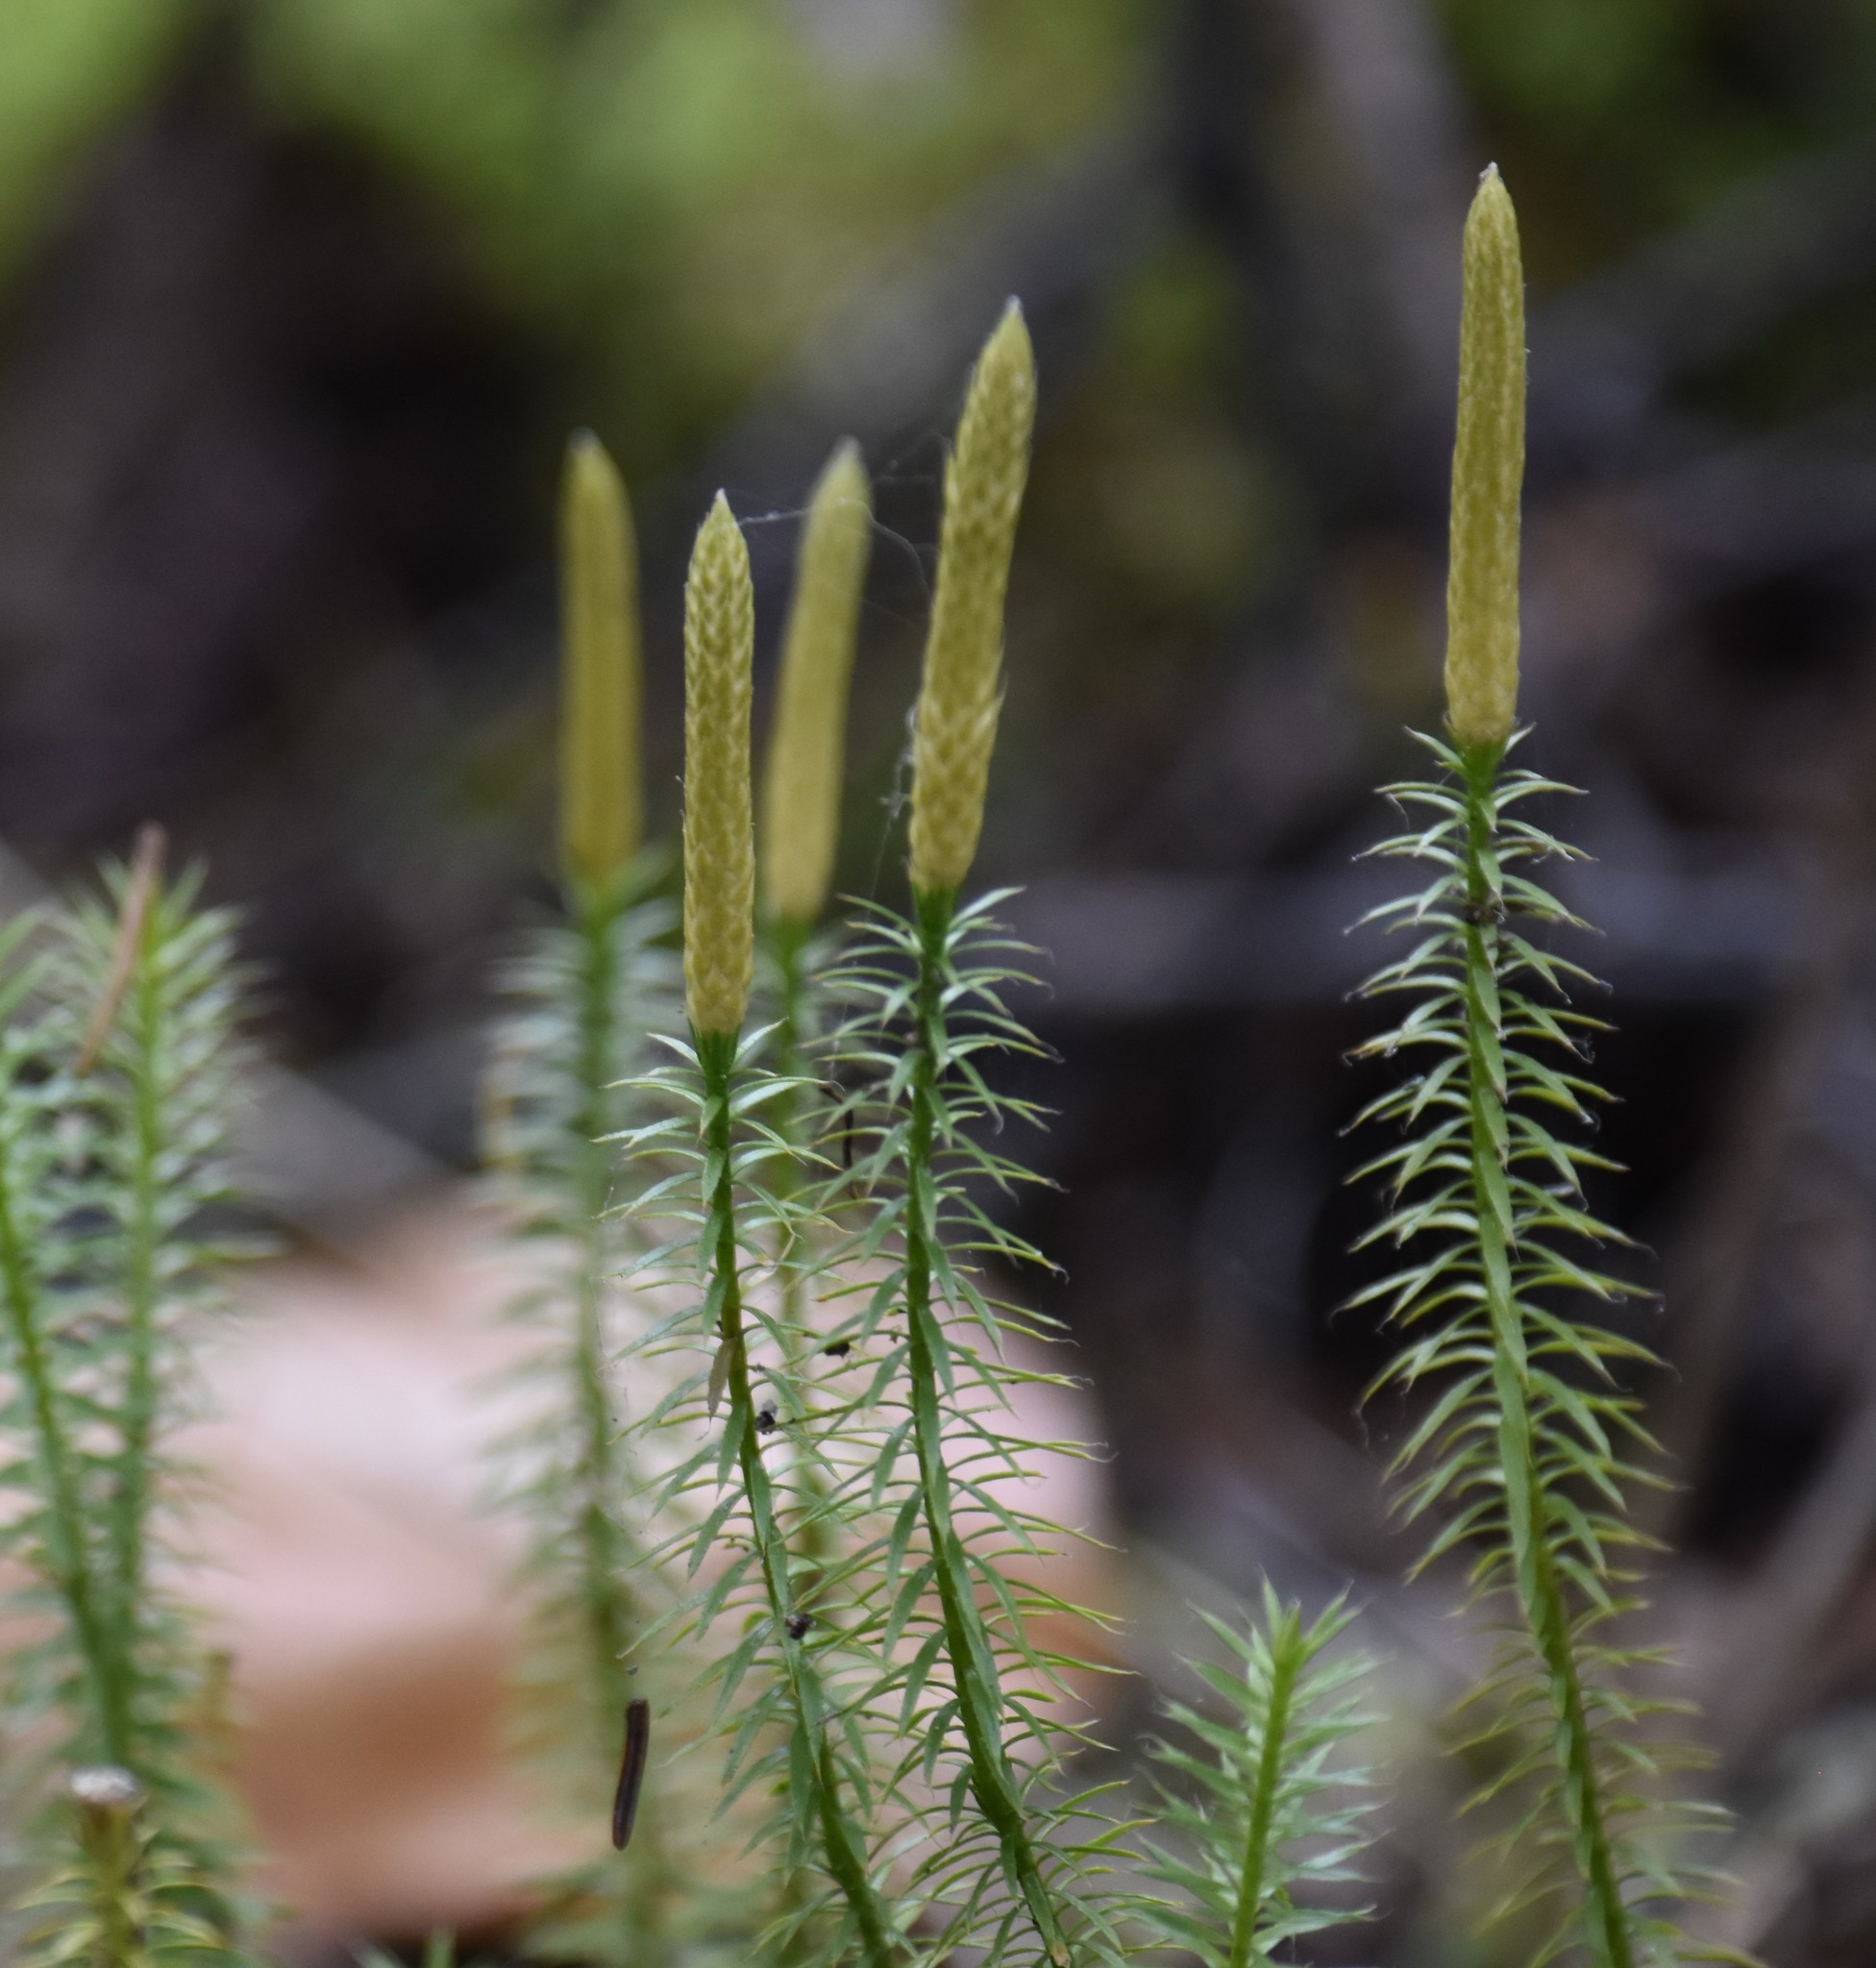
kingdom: Plantae
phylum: Tracheophyta
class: Lycopodiopsida
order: Lycopodiales
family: Lycopodiaceae
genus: Spinulum
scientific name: Spinulum annotinum
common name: Interrupted club-moss
